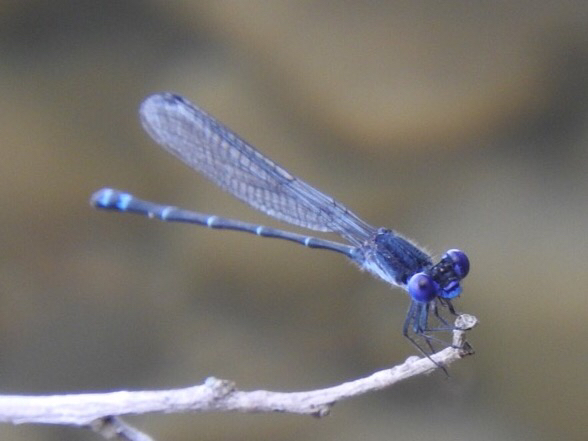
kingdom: Animalia
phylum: Arthropoda
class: Insecta
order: Odonata
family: Coenagrionidae
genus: Argia
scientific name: Argia translata
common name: Dusky dancer
